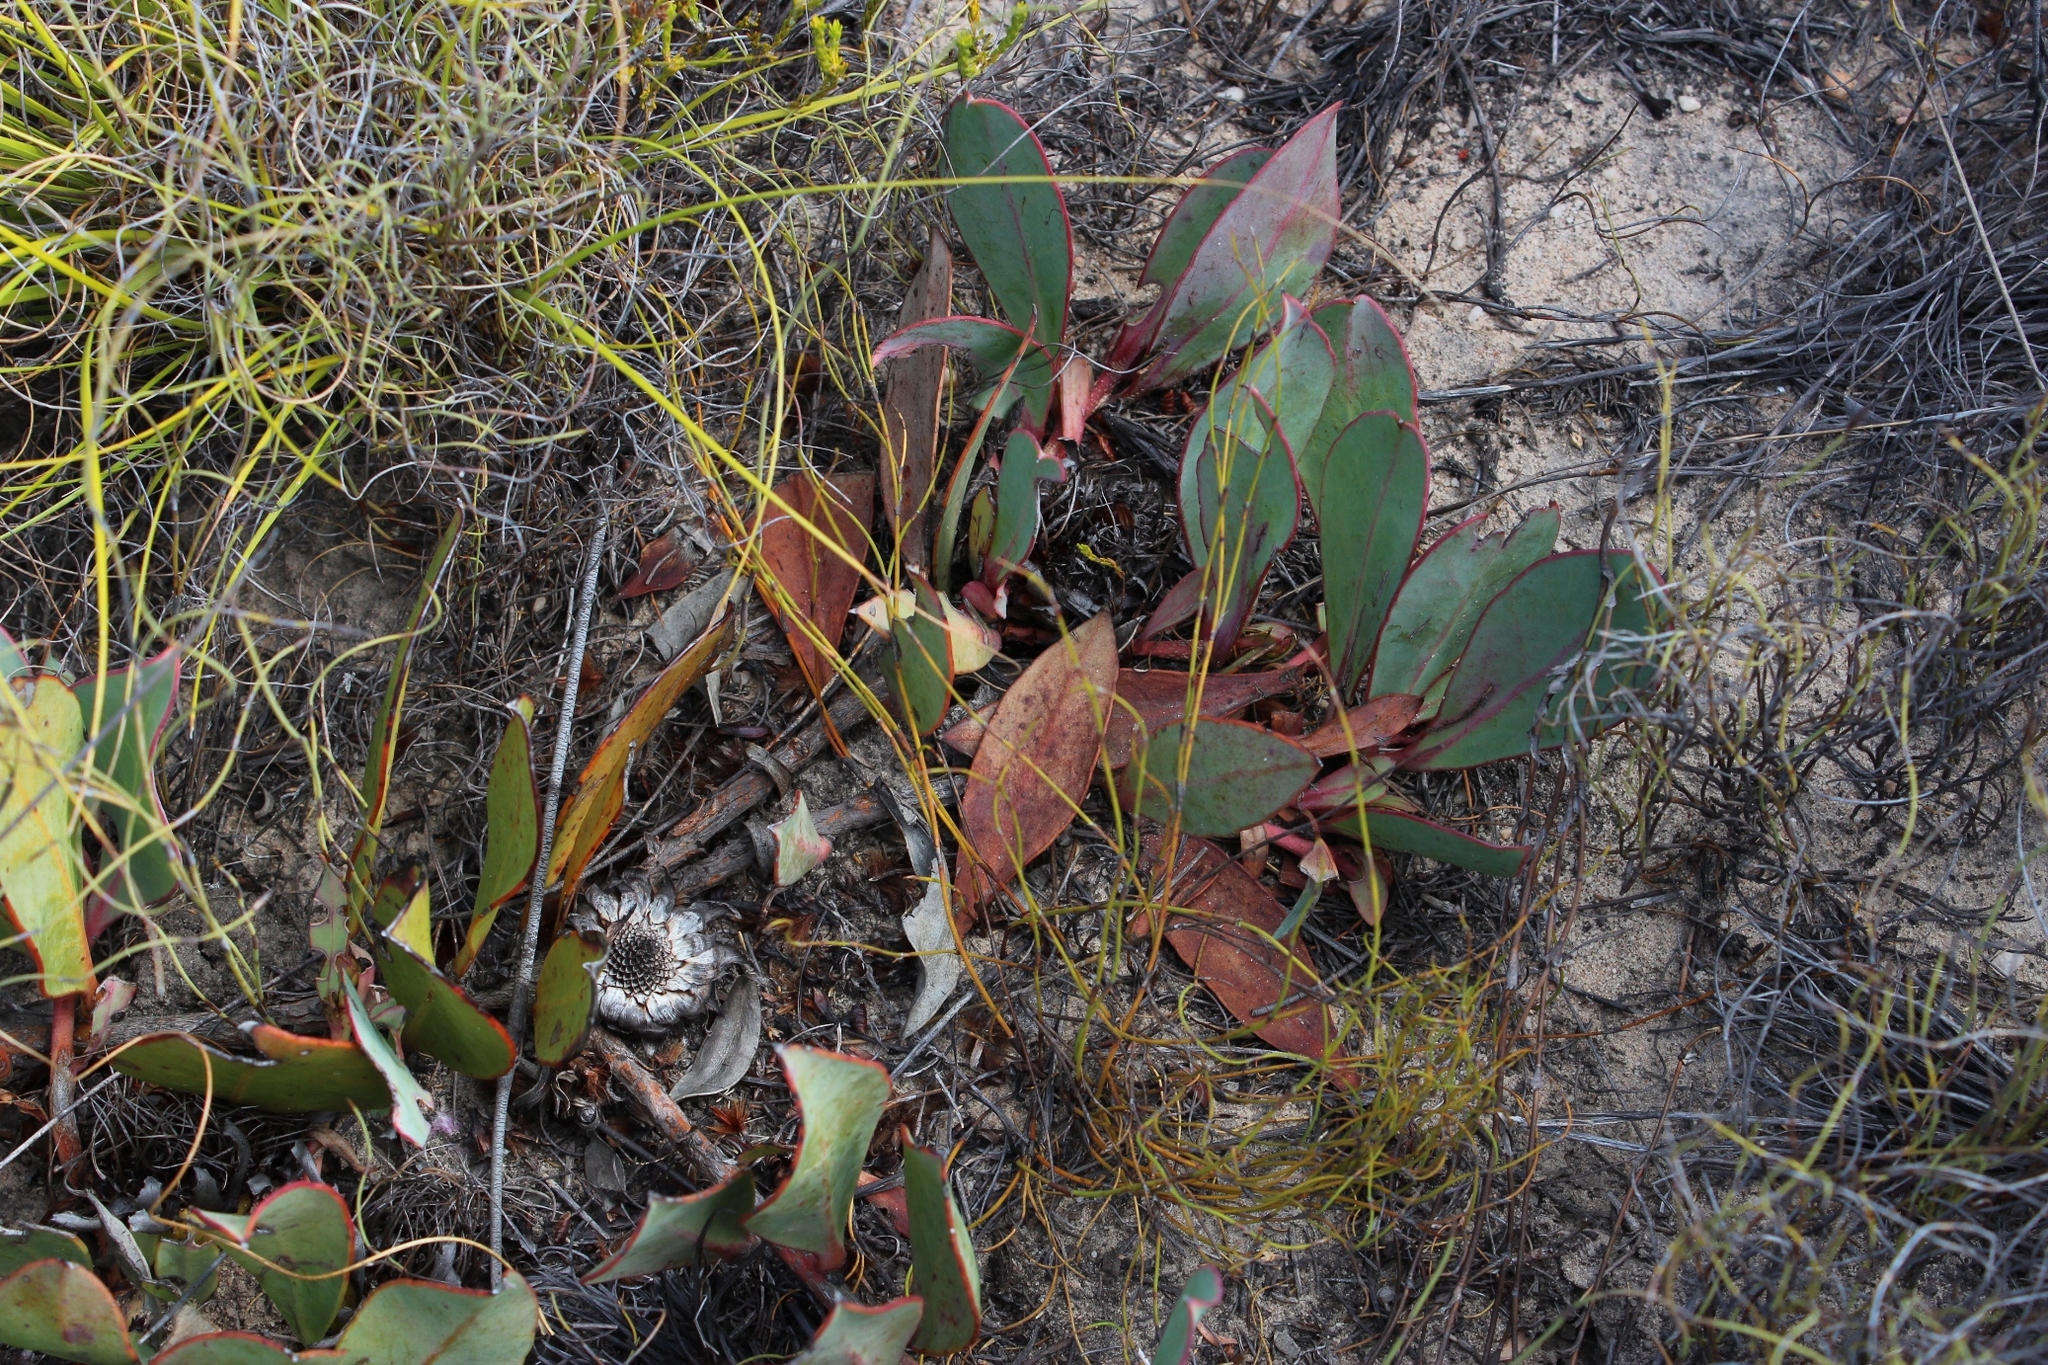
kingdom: Plantae
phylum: Tracheophyta
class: Magnoliopsida
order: Proteales
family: Proteaceae
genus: Protea
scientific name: Protea acaulos
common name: Common ground sugarbush
